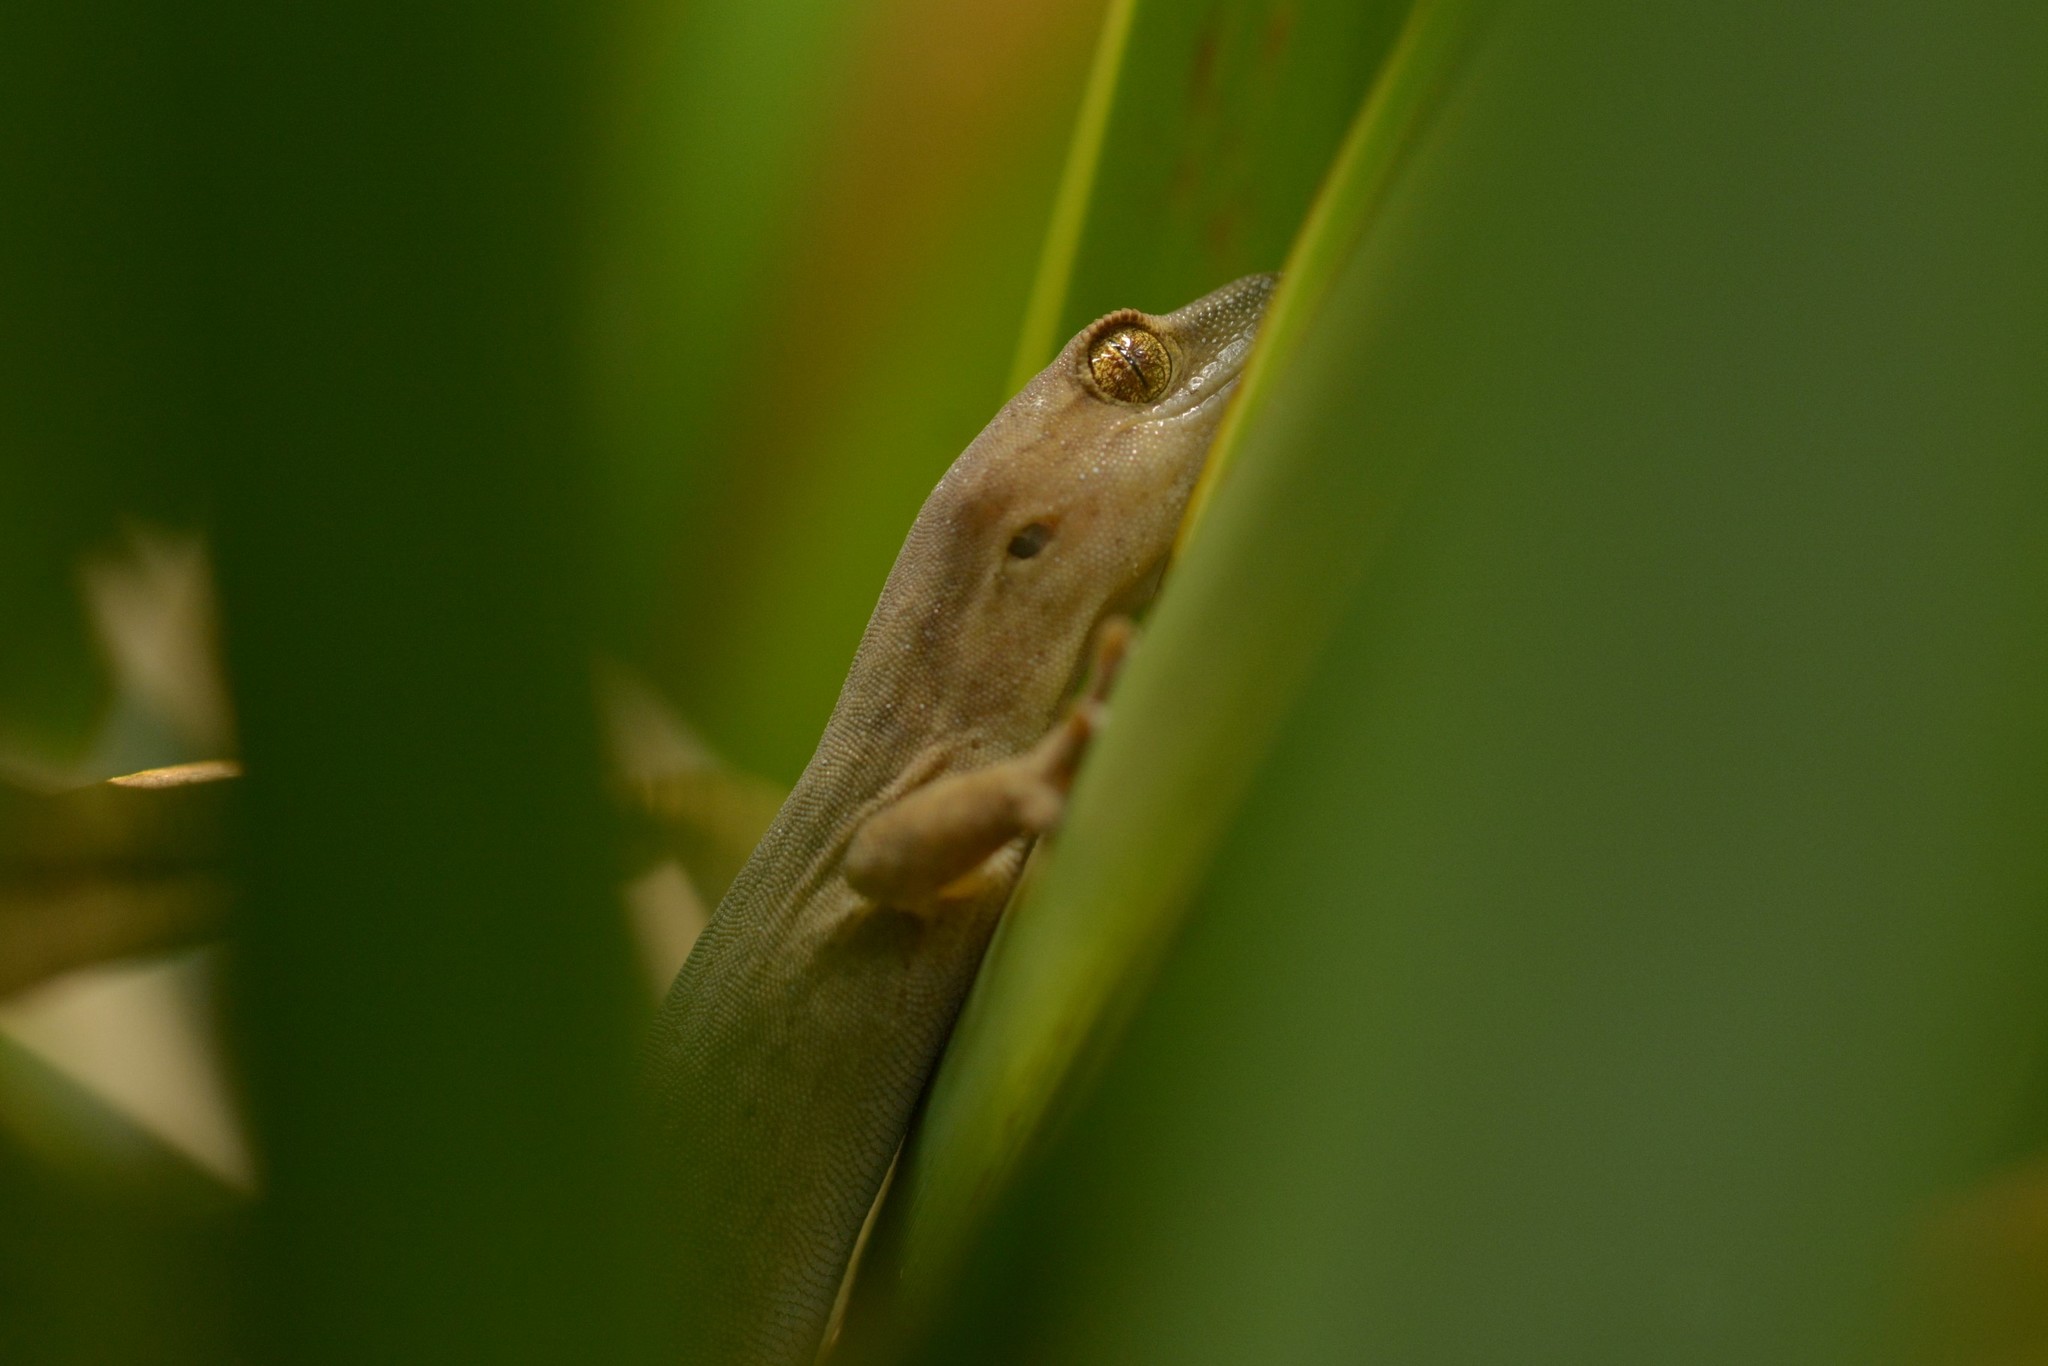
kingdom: Animalia
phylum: Chordata
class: Squamata
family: Diplodactylidae
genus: Woodworthia
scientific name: Woodworthia chrysosiretica
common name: Gold-striped gecko
